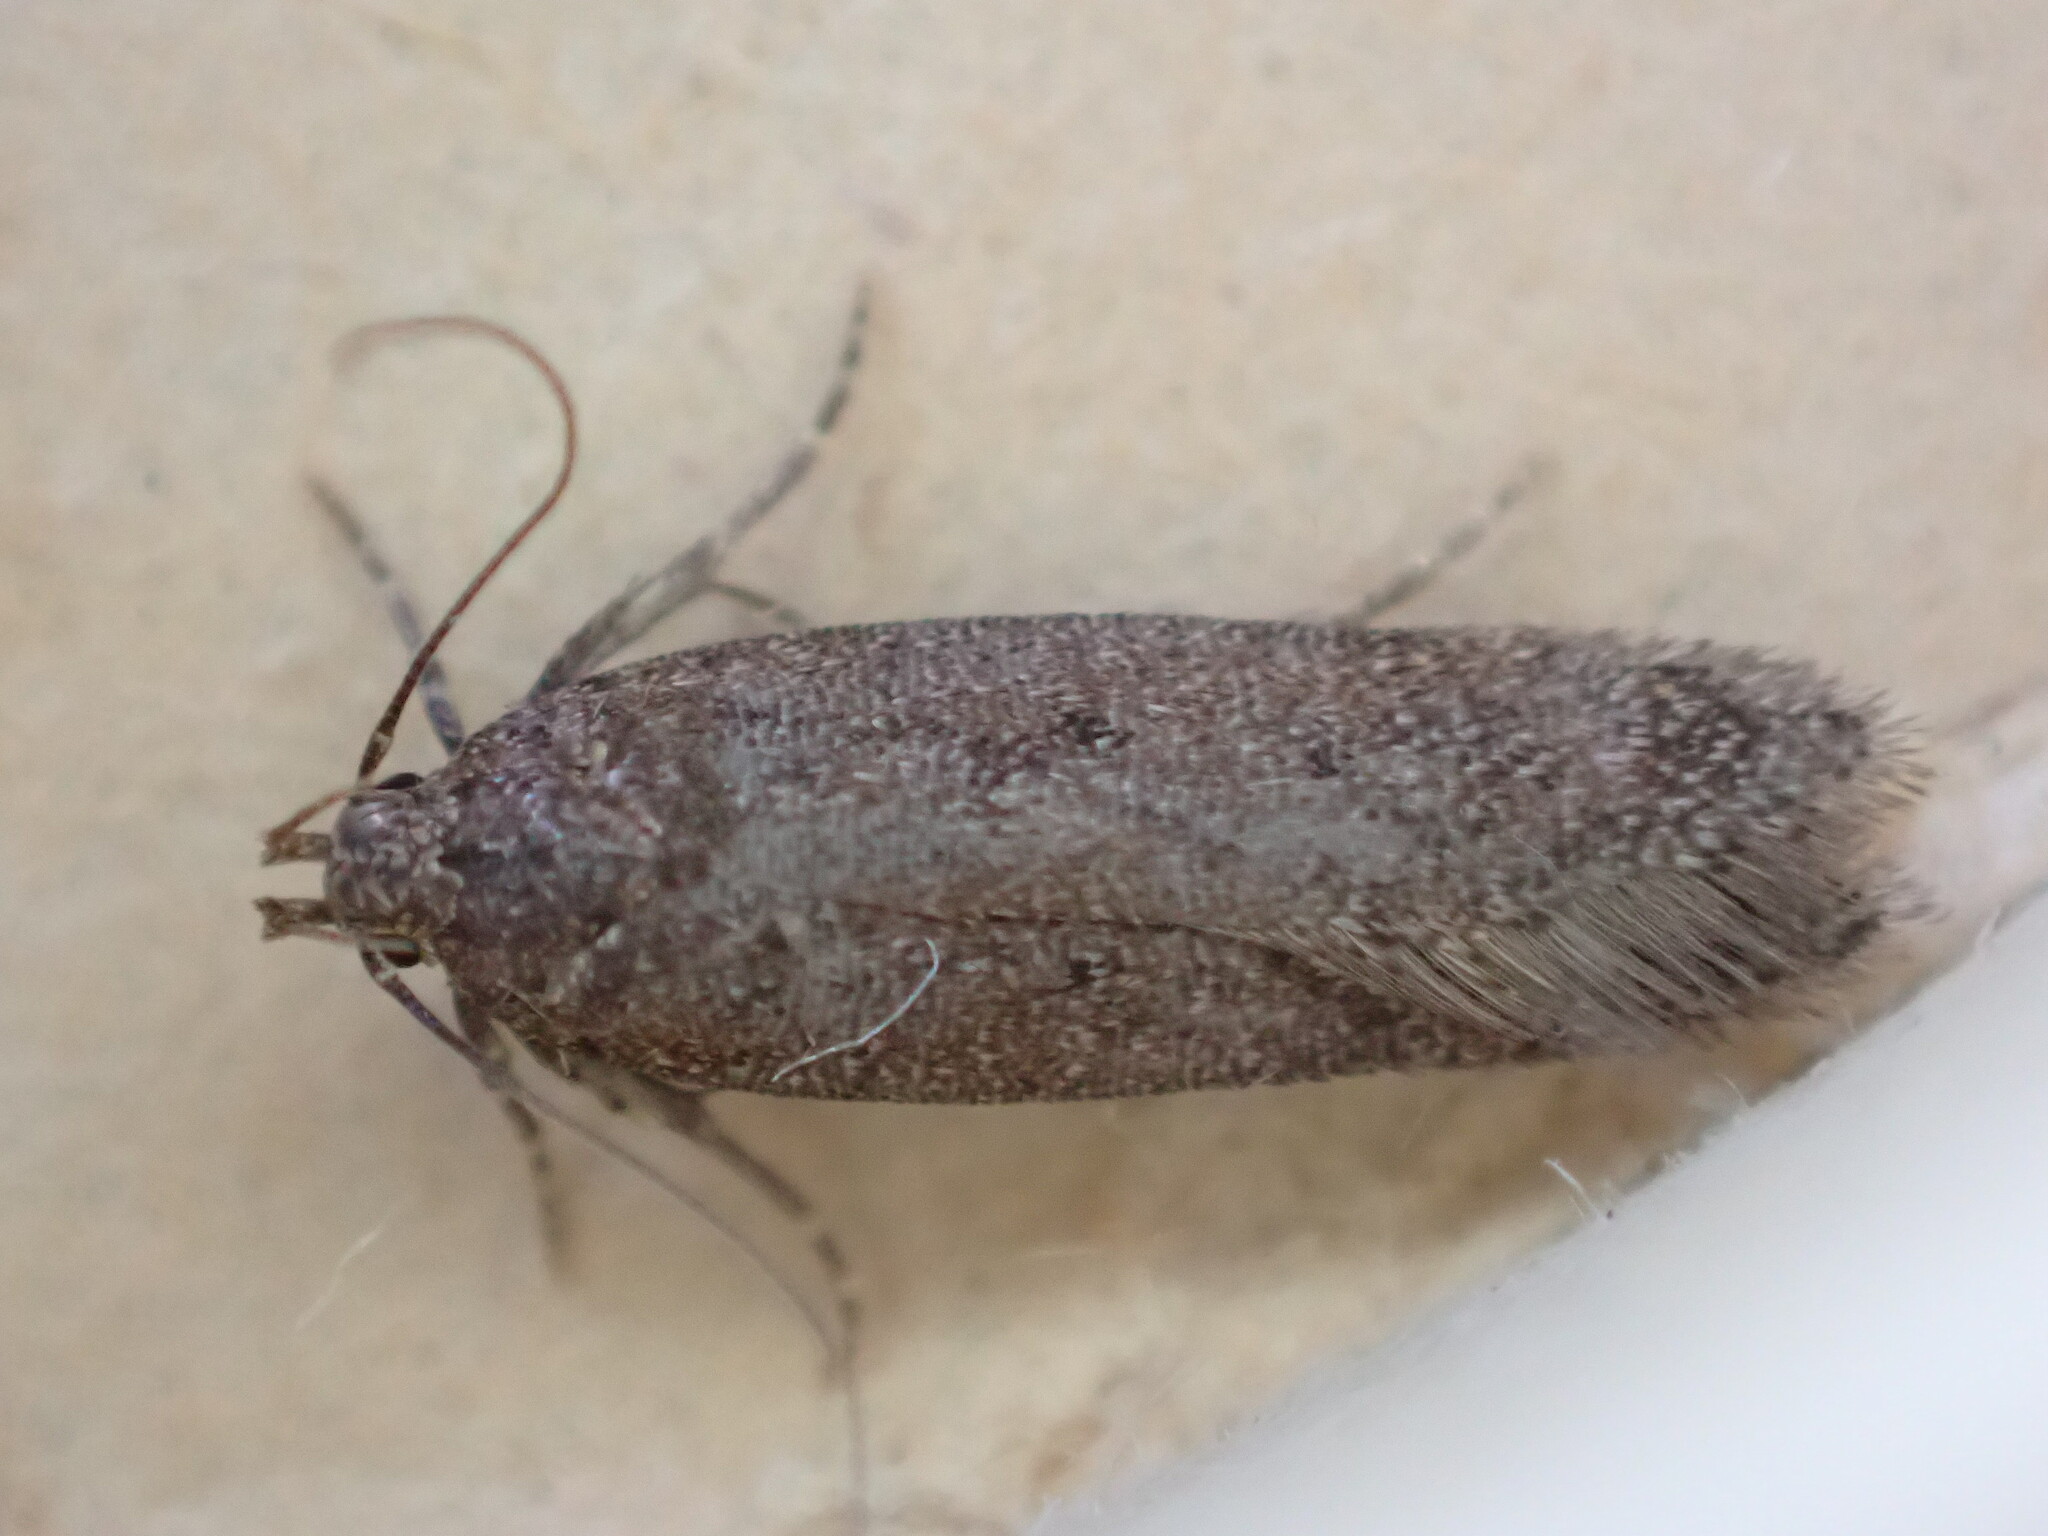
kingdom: Animalia
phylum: Arthropoda
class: Insecta
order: Lepidoptera
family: Gelechiidae
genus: Bryotropha
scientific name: Bryotropha terrella
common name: Cinerous groundling
